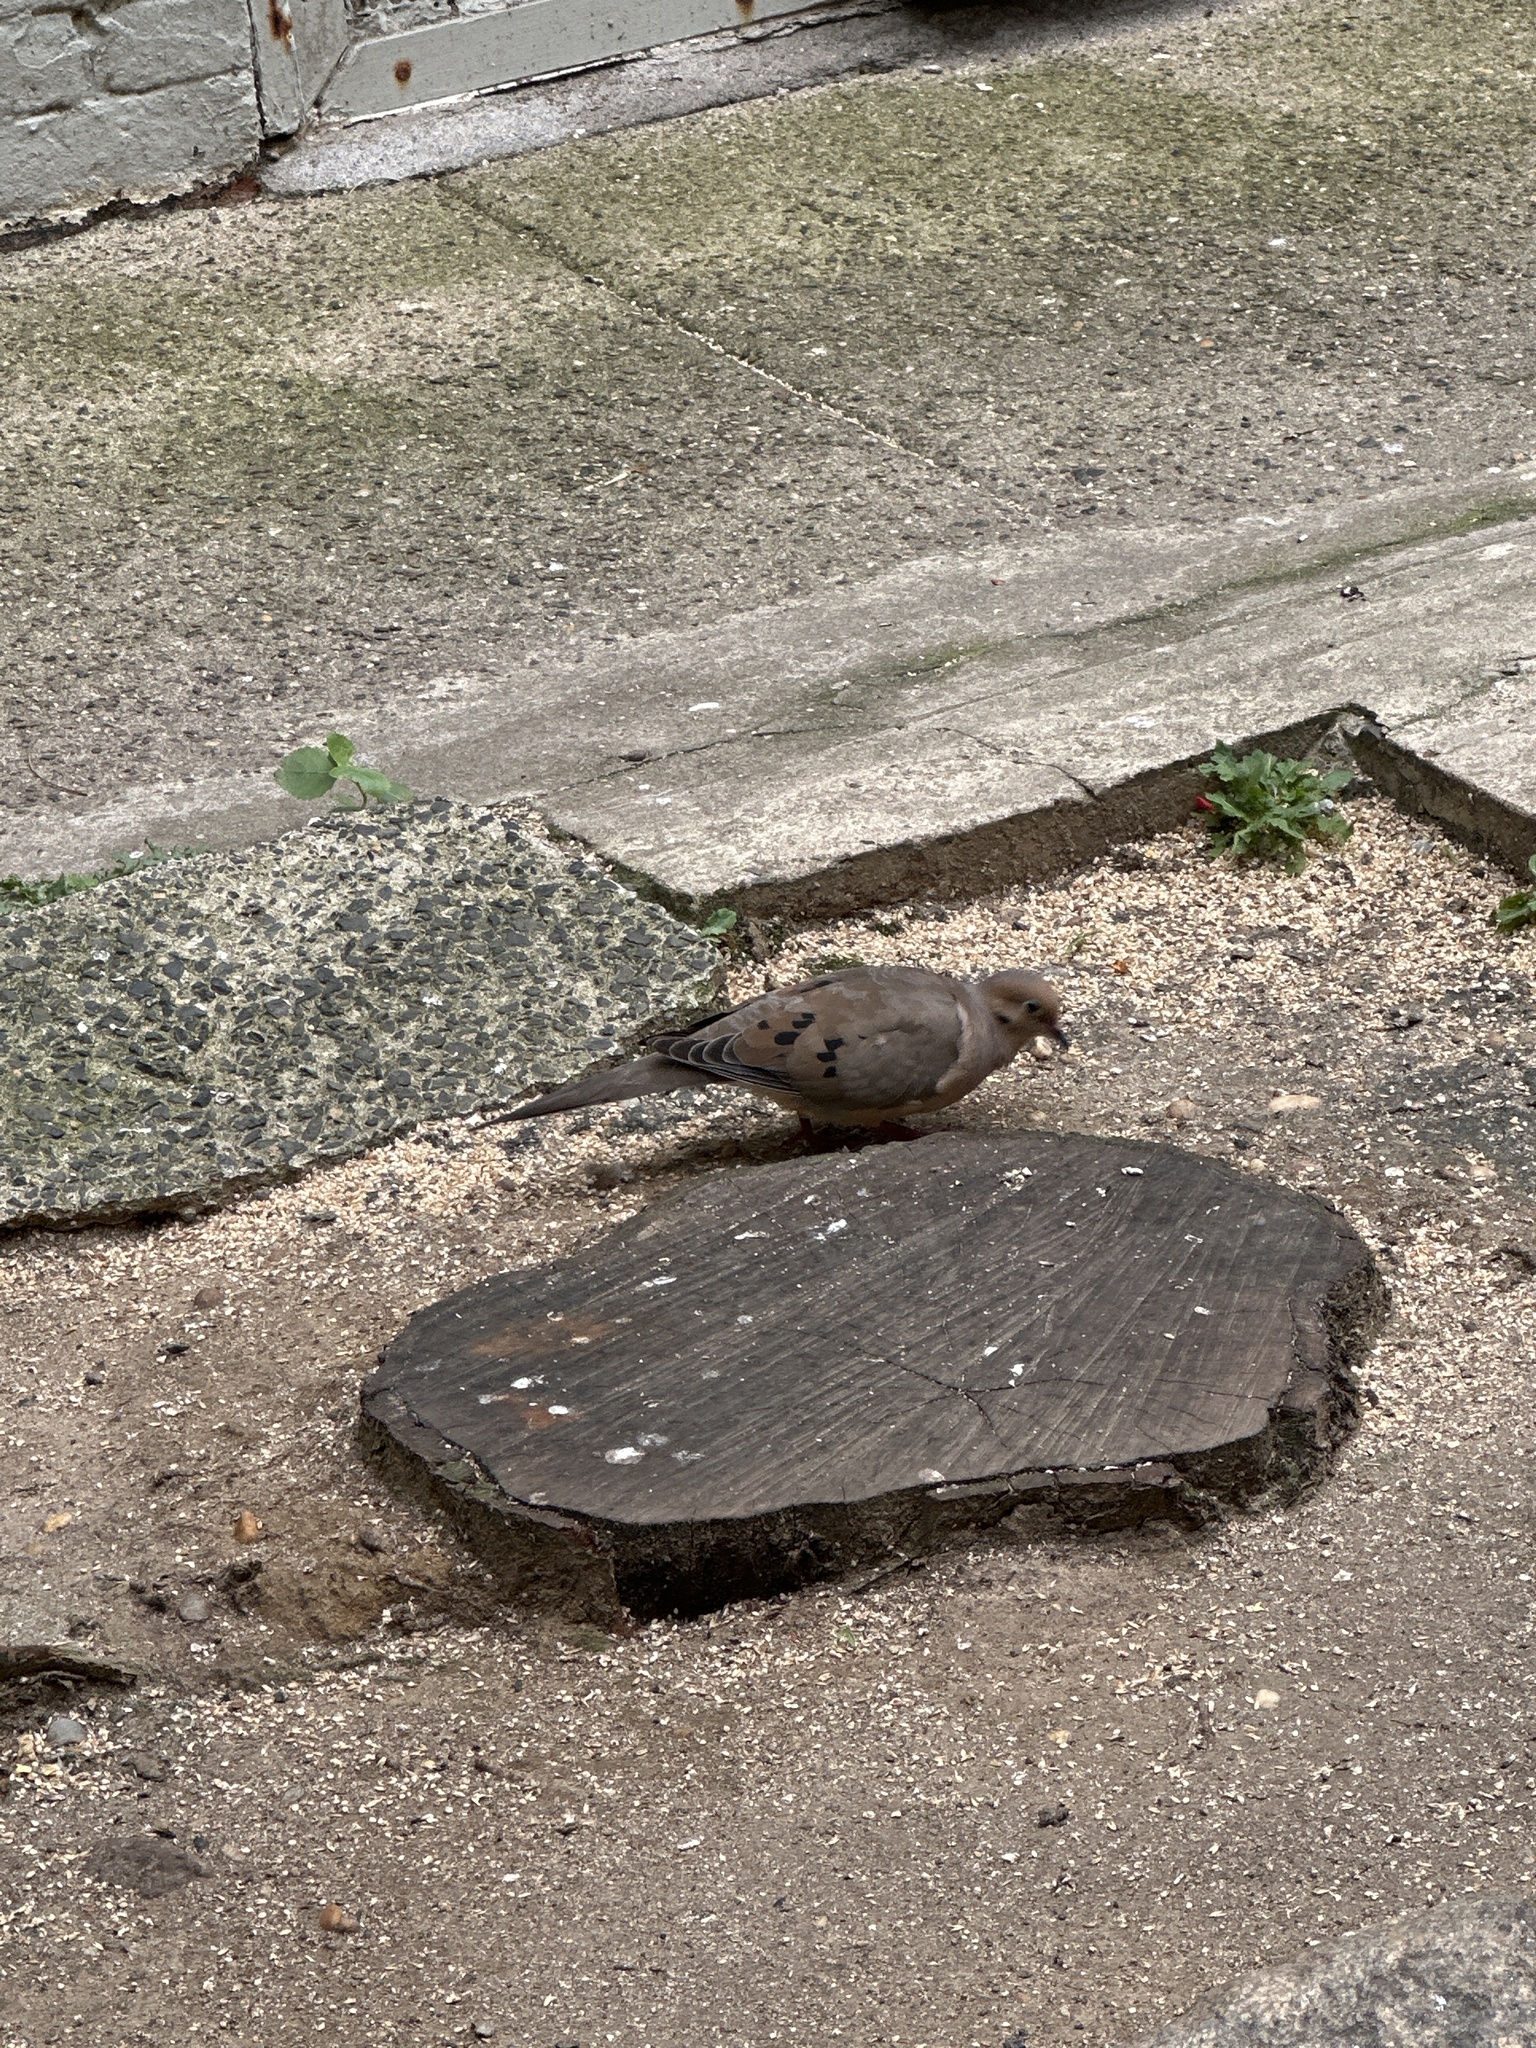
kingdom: Animalia
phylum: Chordata
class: Aves
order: Columbiformes
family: Columbidae
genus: Zenaida
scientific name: Zenaida macroura
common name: Mourning dove
